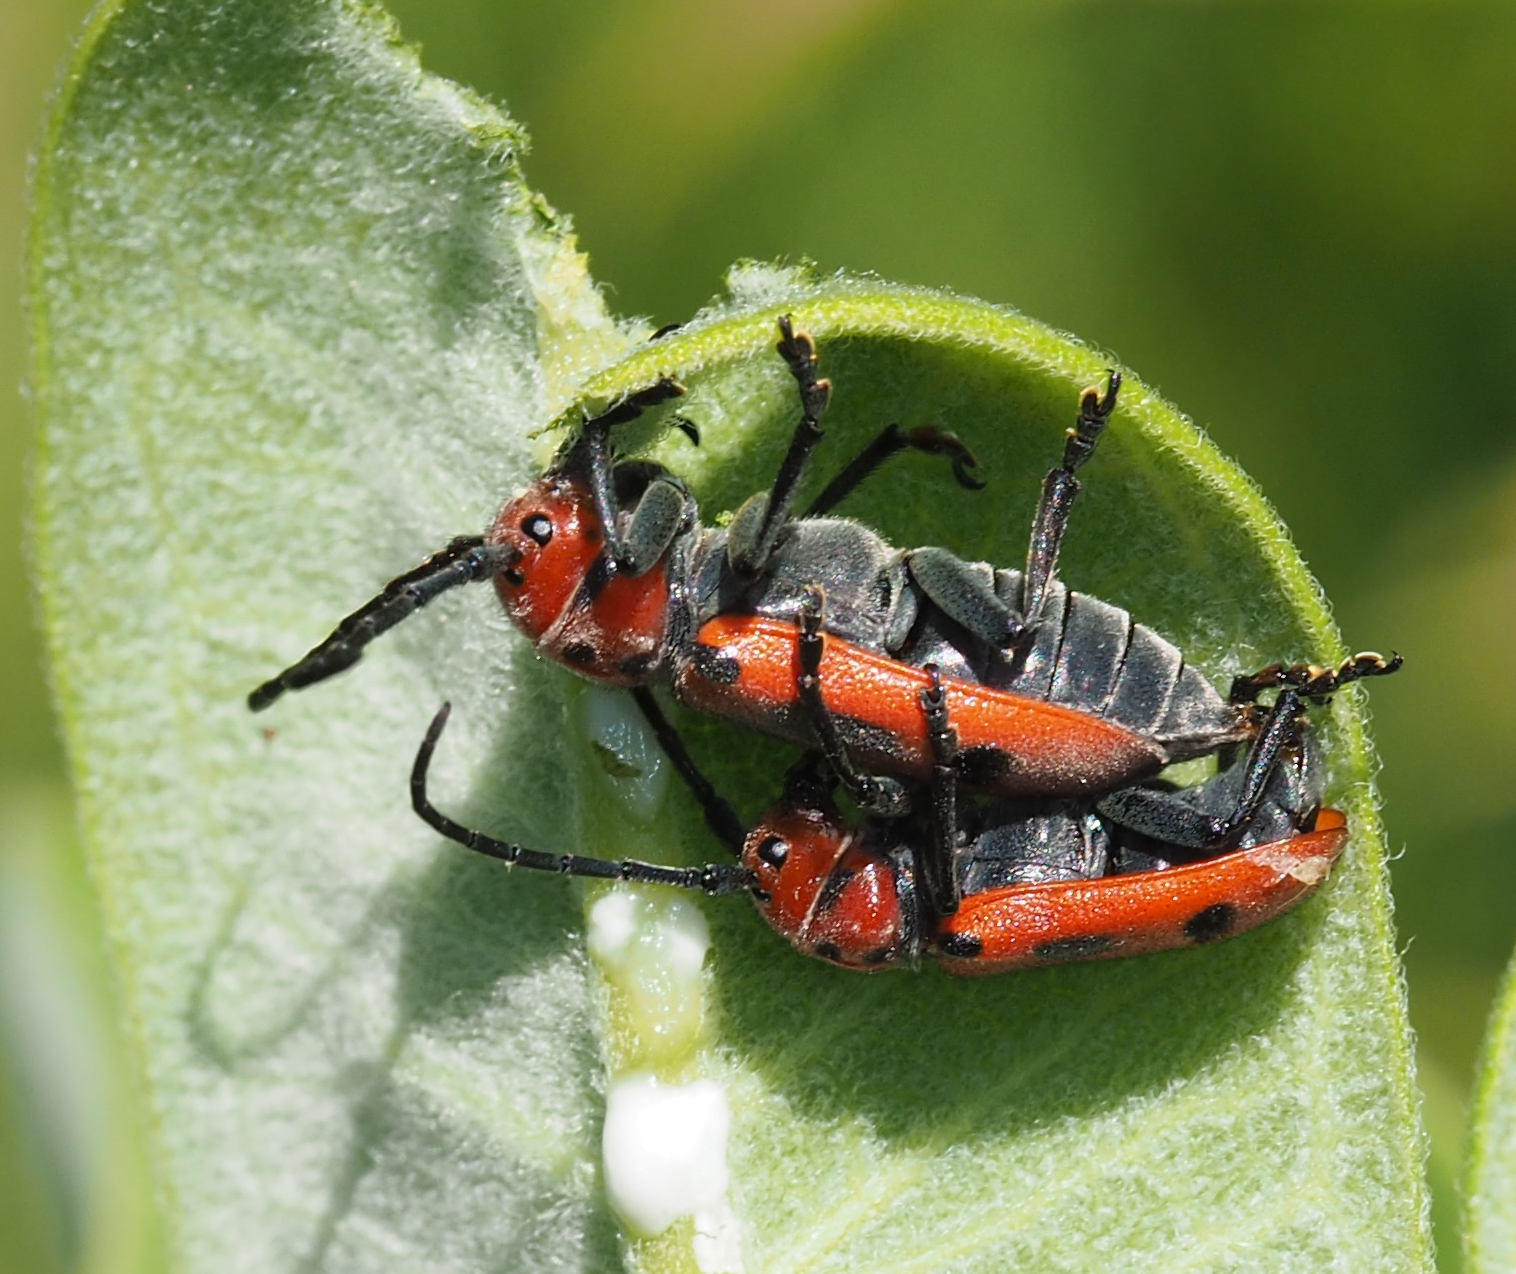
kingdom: Animalia
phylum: Arthropoda
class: Insecta
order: Coleoptera
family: Cerambycidae
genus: Tetraopes
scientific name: Tetraopes tetrophthalmus
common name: Red milkweed beetle
